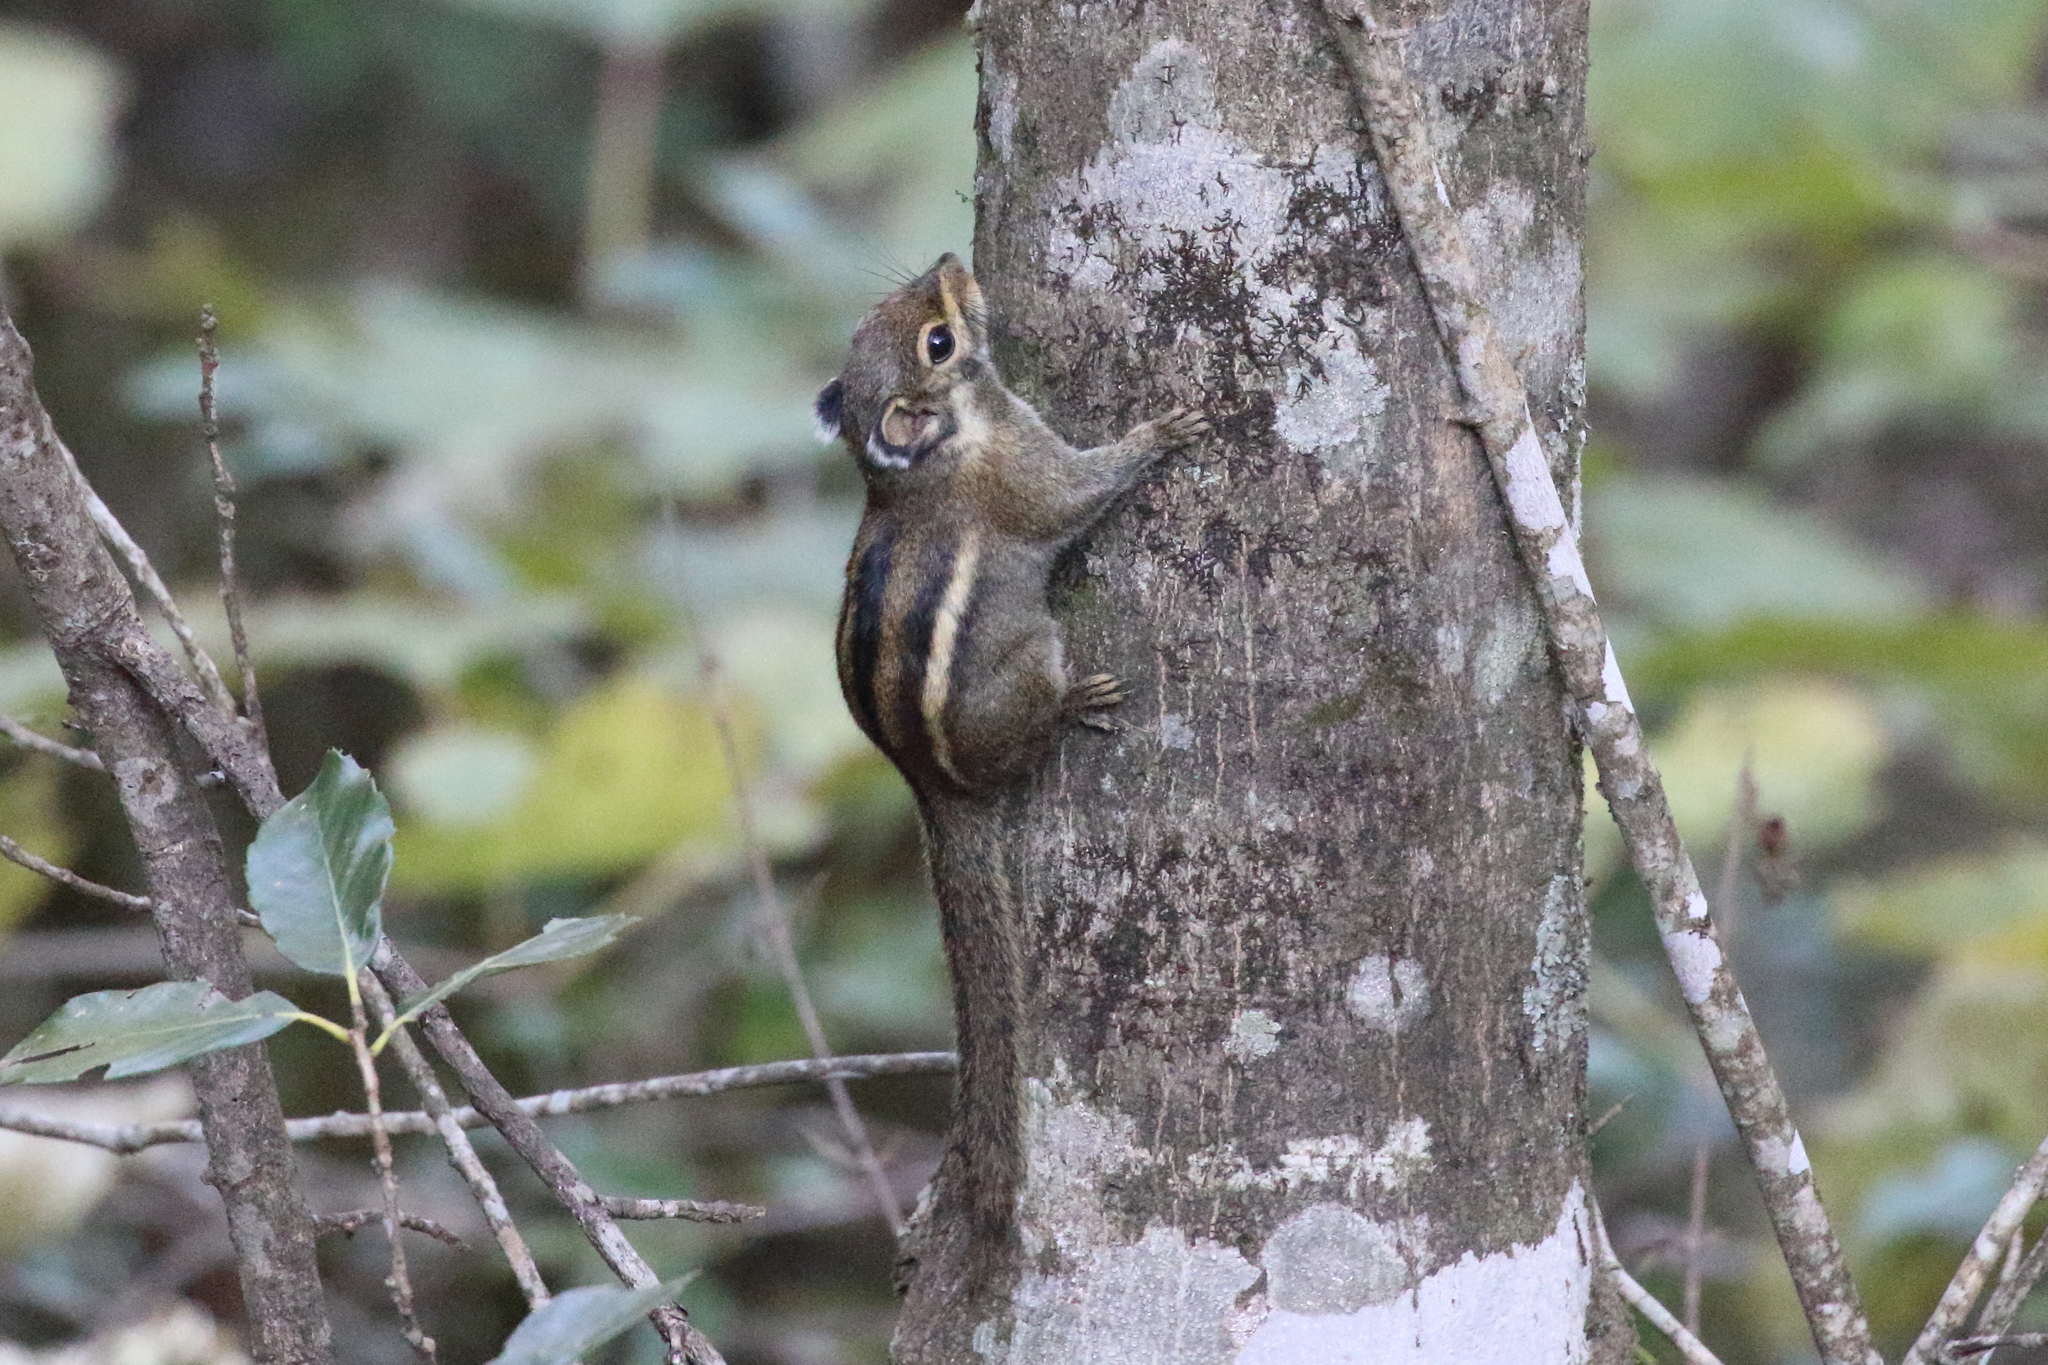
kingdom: Animalia
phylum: Chordata
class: Mammalia
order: Rodentia
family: Sciuridae
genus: Tamiops
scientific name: Tamiops maritimus
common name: Maritime striped squirrel
